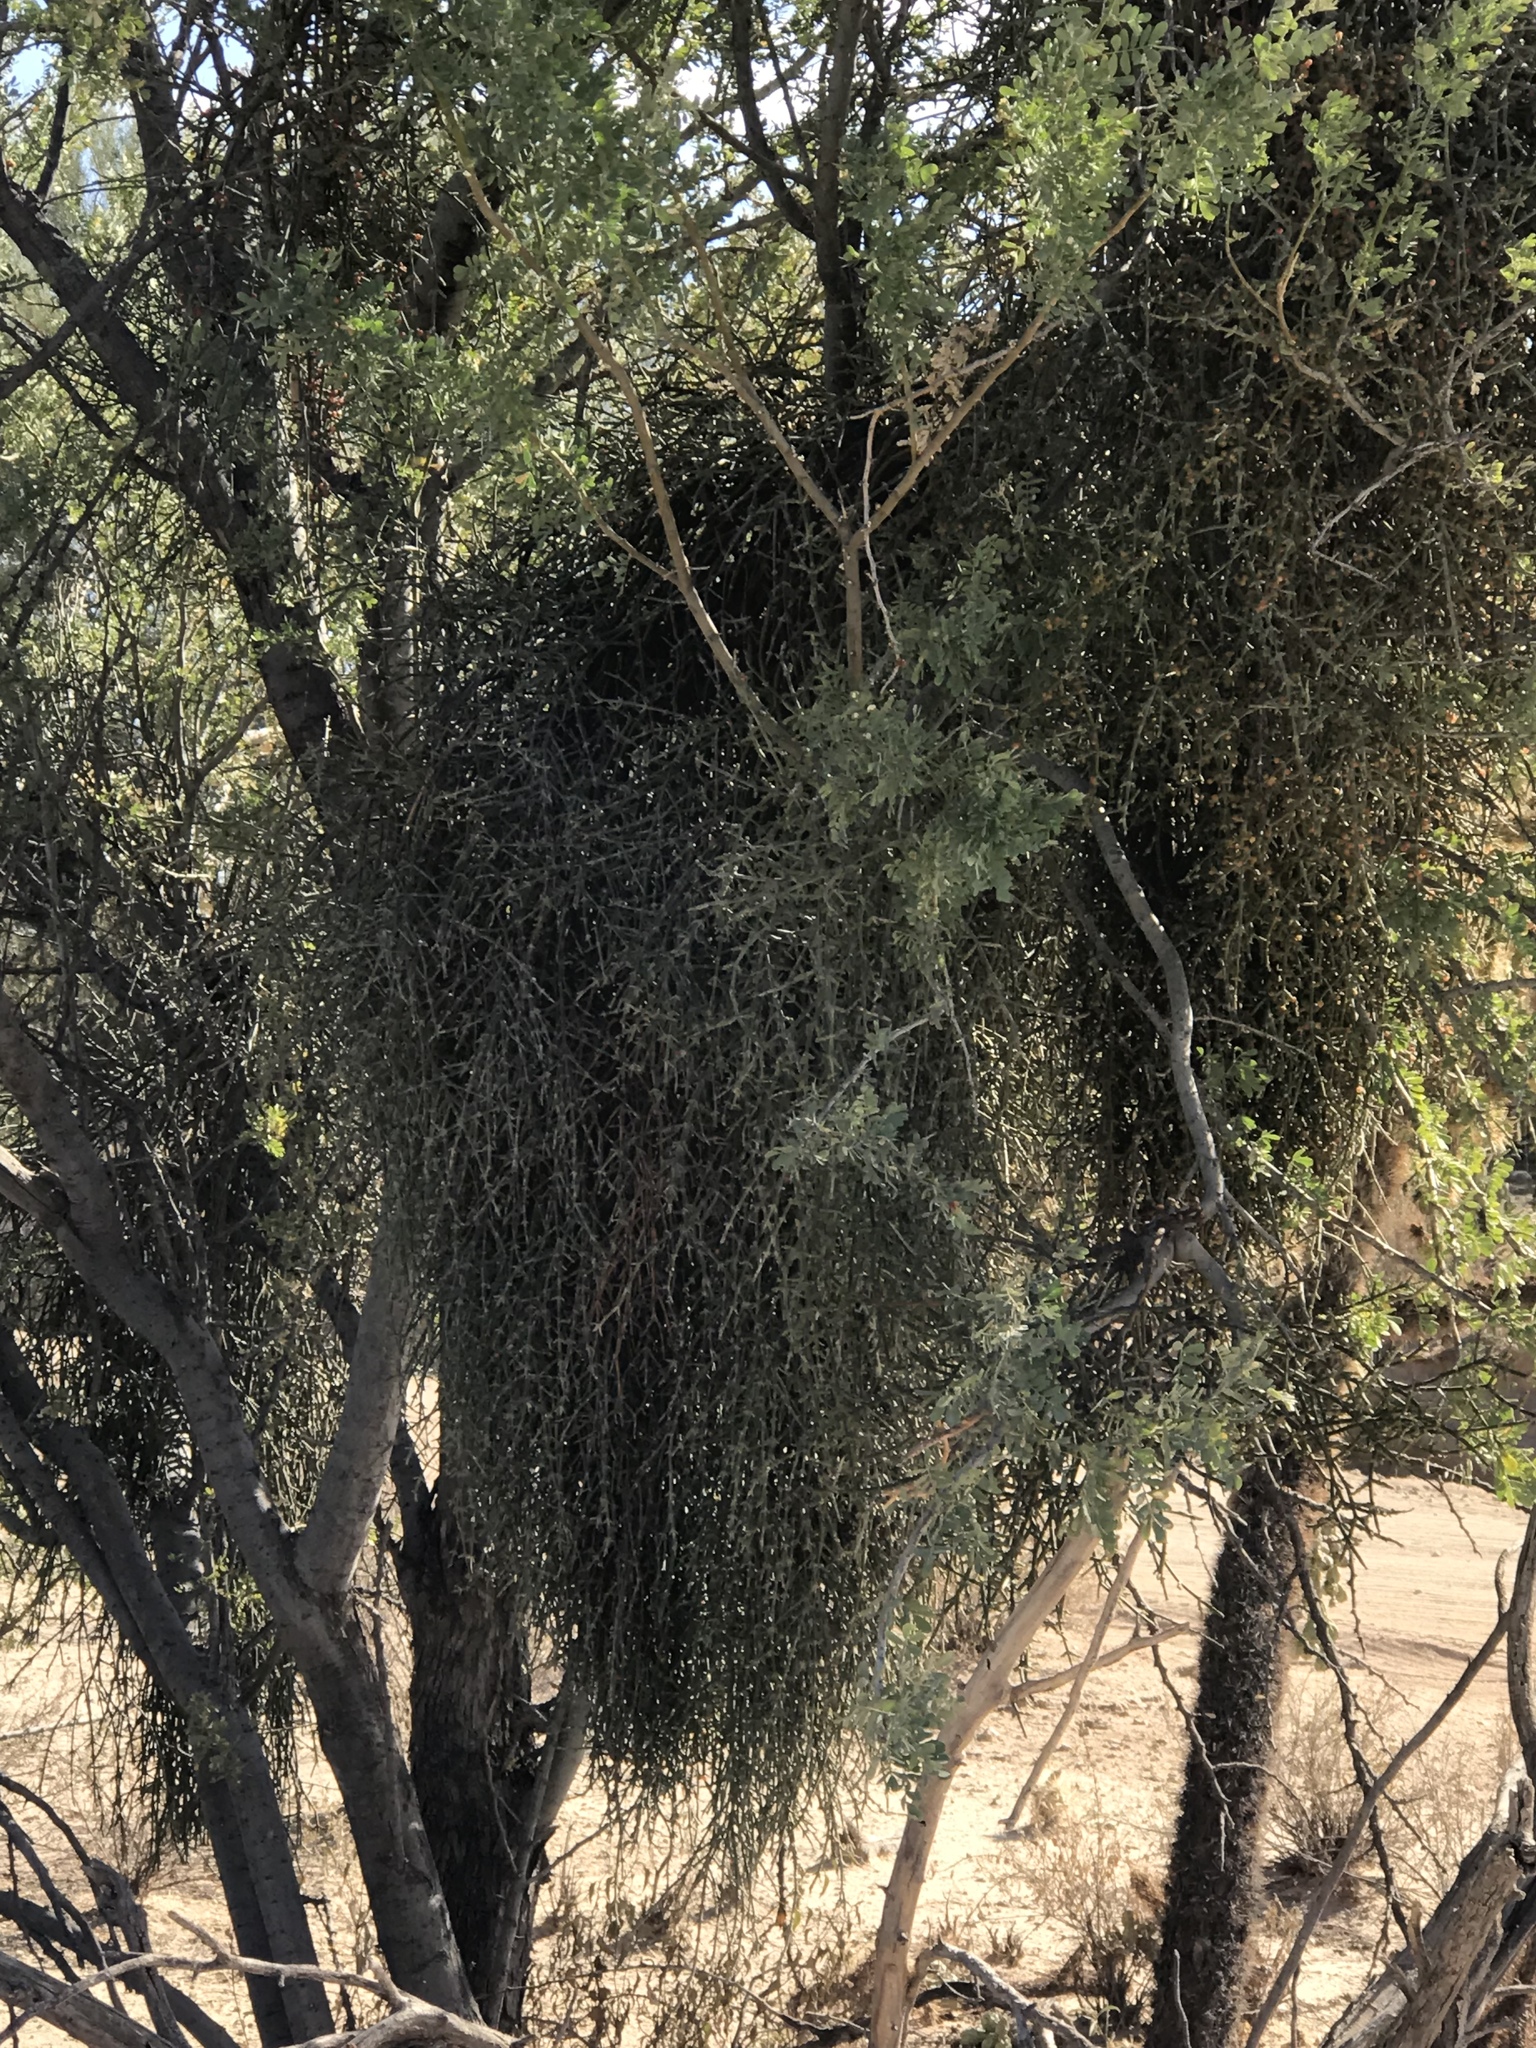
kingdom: Plantae
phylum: Tracheophyta
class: Magnoliopsida
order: Santalales
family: Viscaceae
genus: Phoradendron
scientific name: Phoradendron californicum
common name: Acacia mistletoe
